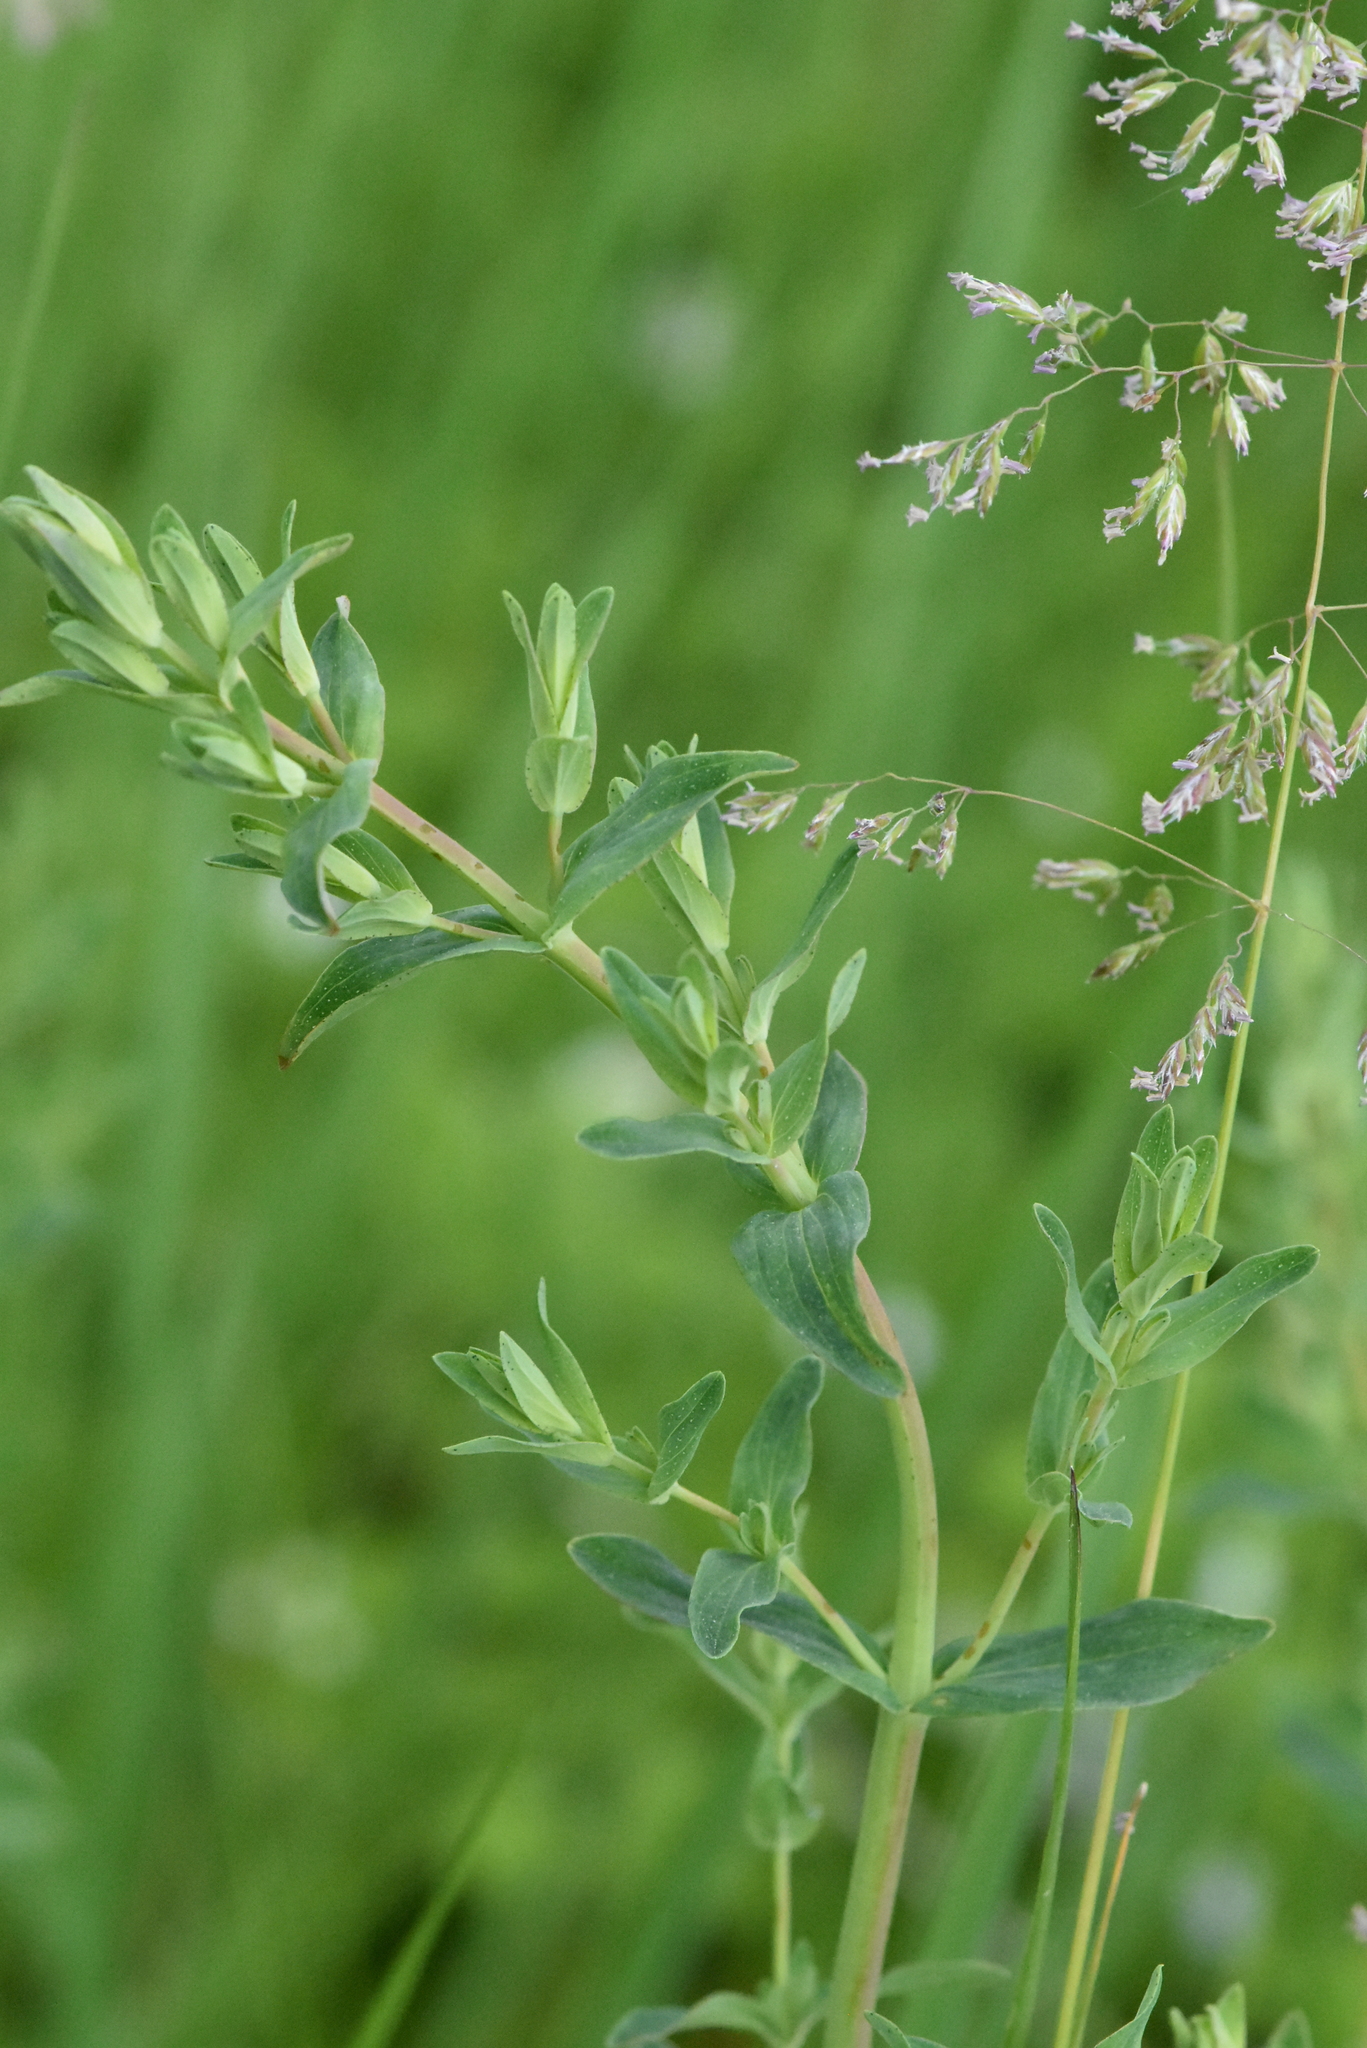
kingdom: Plantae
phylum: Tracheophyta
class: Magnoliopsida
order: Malpighiales
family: Hypericaceae
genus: Hypericum
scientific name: Hypericum perforatum
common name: Common st. johnswort
